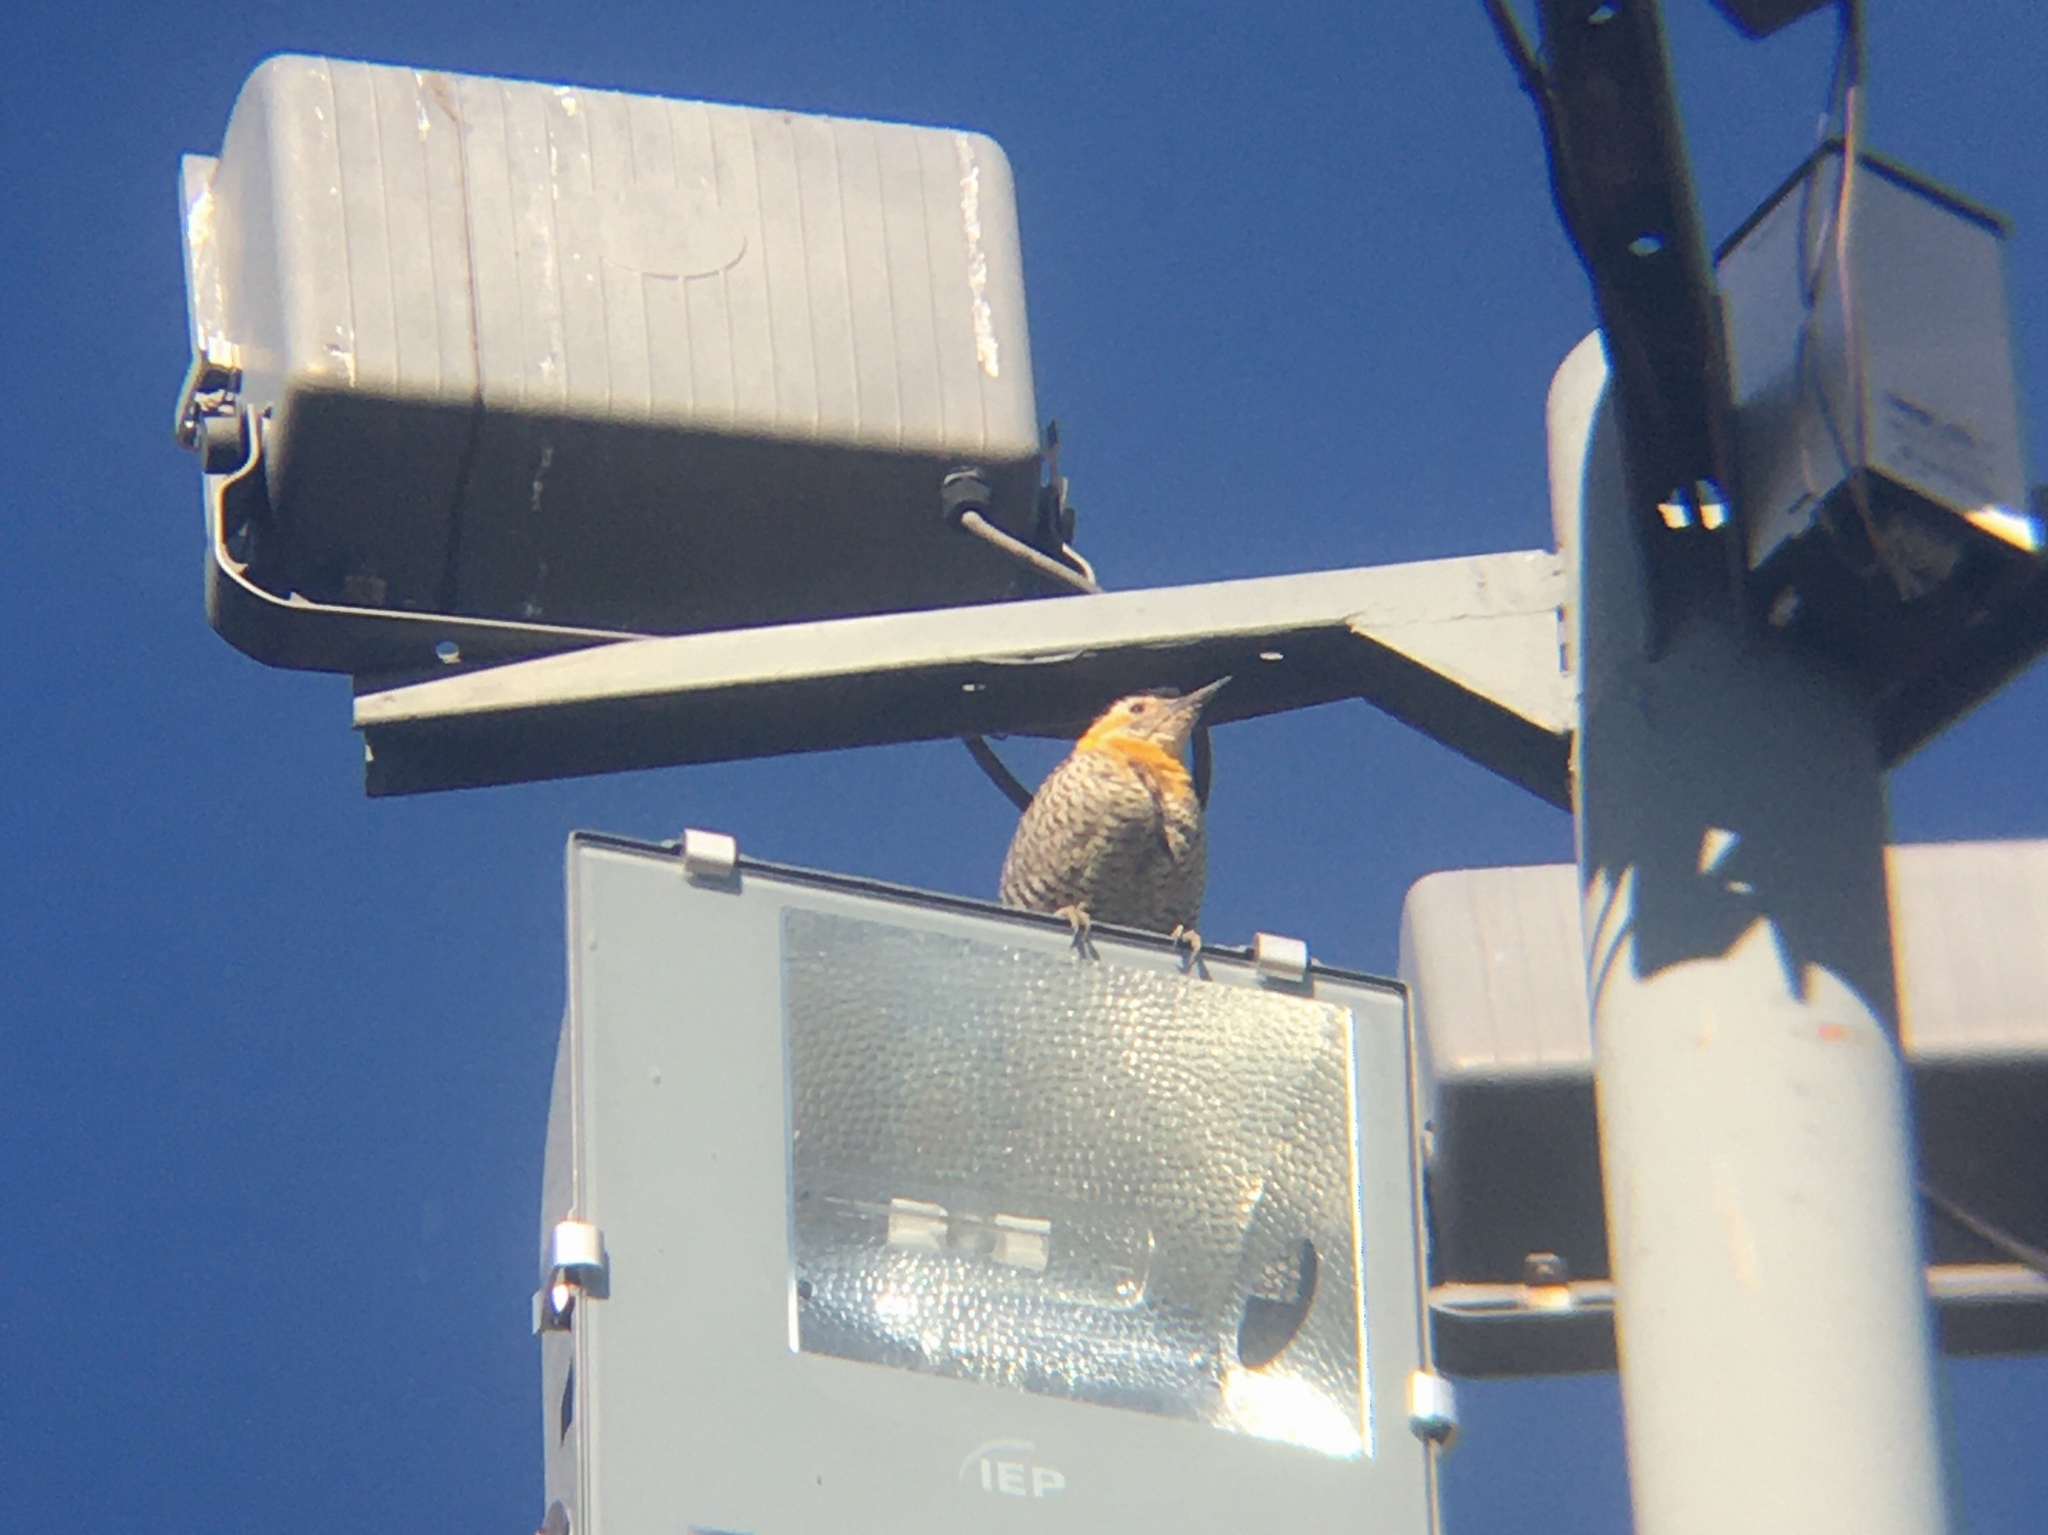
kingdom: Animalia
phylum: Chordata
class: Aves
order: Piciformes
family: Picidae
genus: Colaptes
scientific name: Colaptes campestris
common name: Campo flicker
